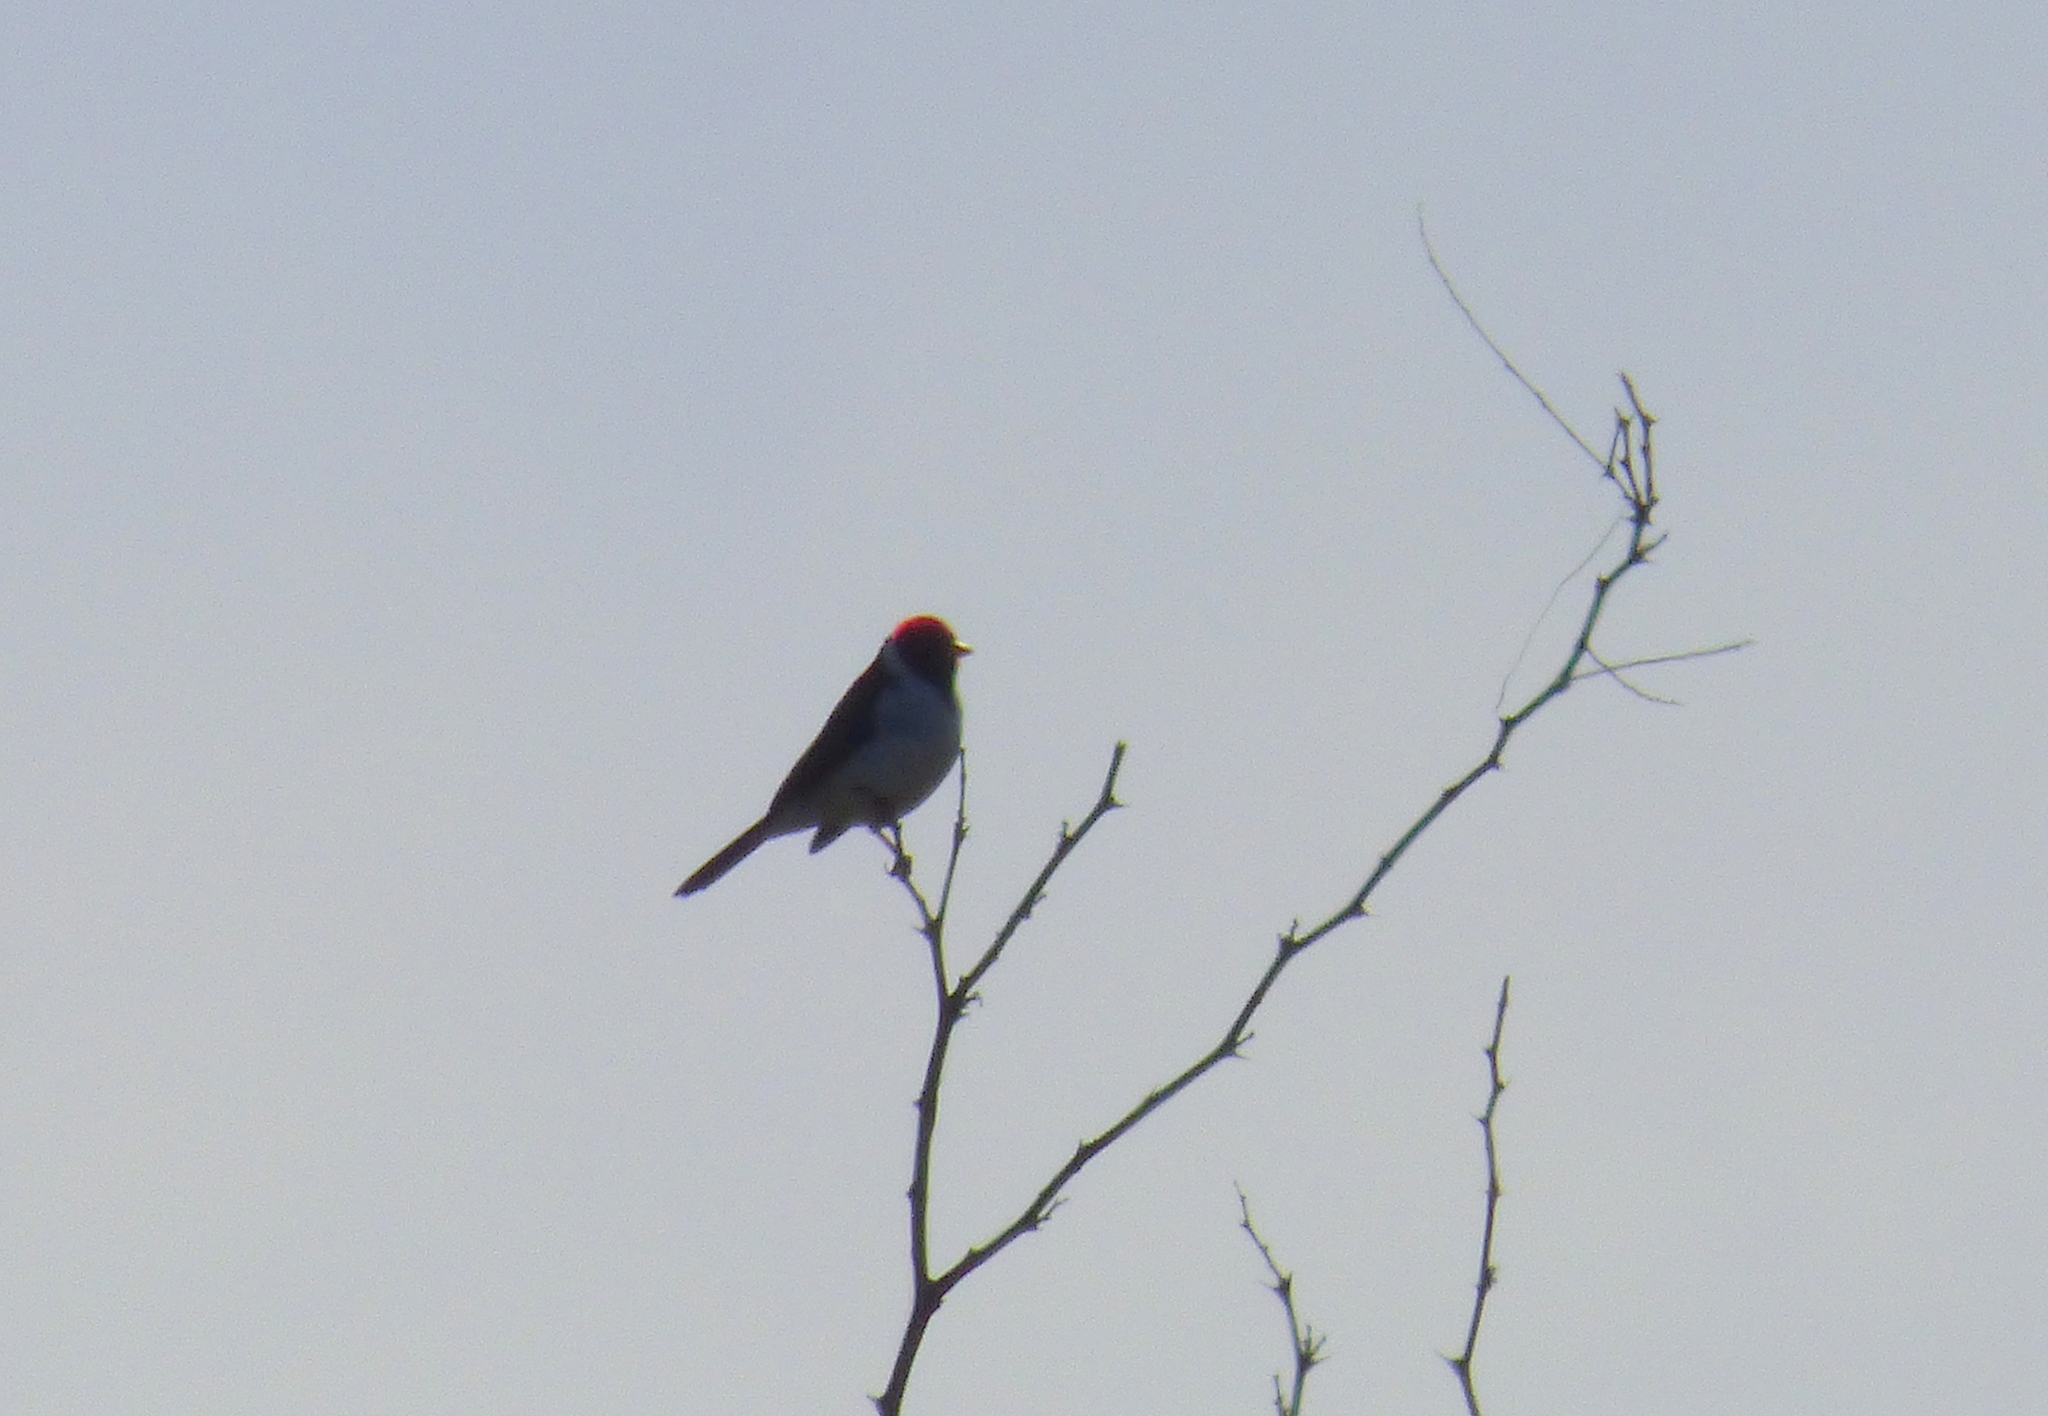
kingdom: Animalia
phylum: Chordata
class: Aves
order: Passeriformes
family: Thraupidae
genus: Paroaria
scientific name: Paroaria capitata
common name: Yellow-billed cardinal
